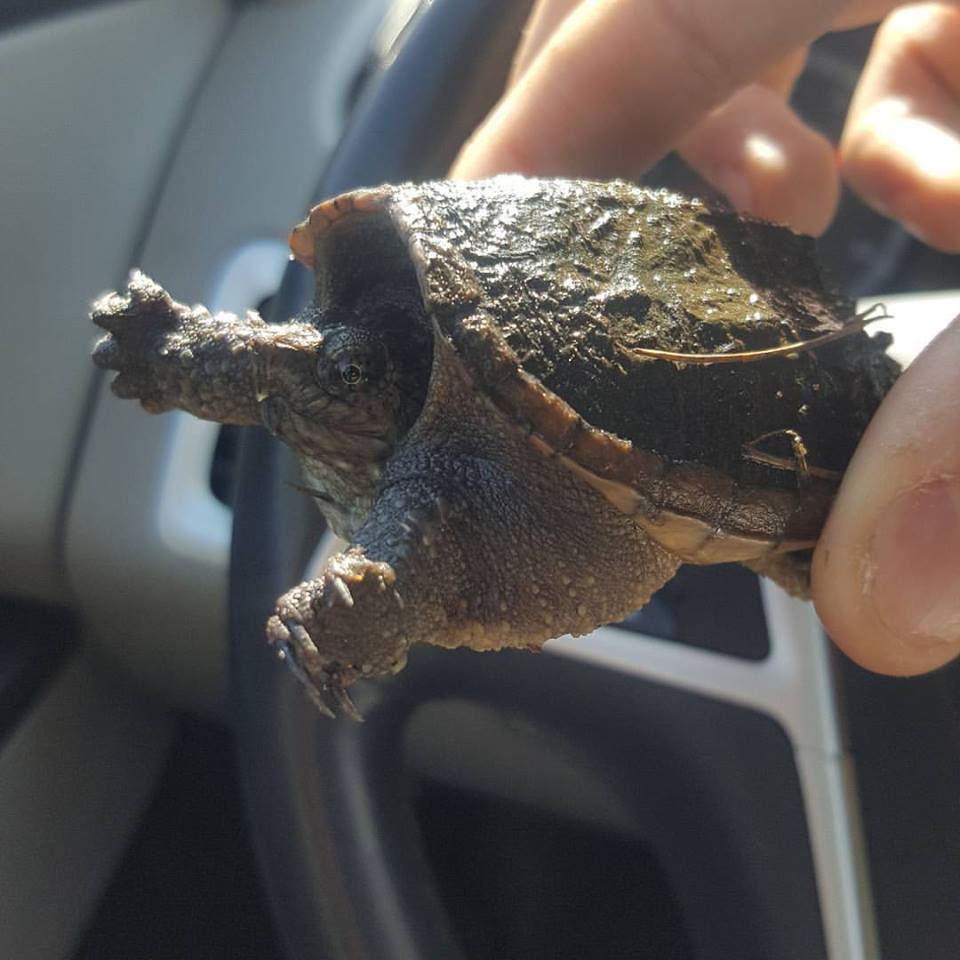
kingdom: Animalia
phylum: Chordata
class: Testudines
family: Chelydridae
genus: Chelydra
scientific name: Chelydra serpentina
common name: Common snapping turtle
